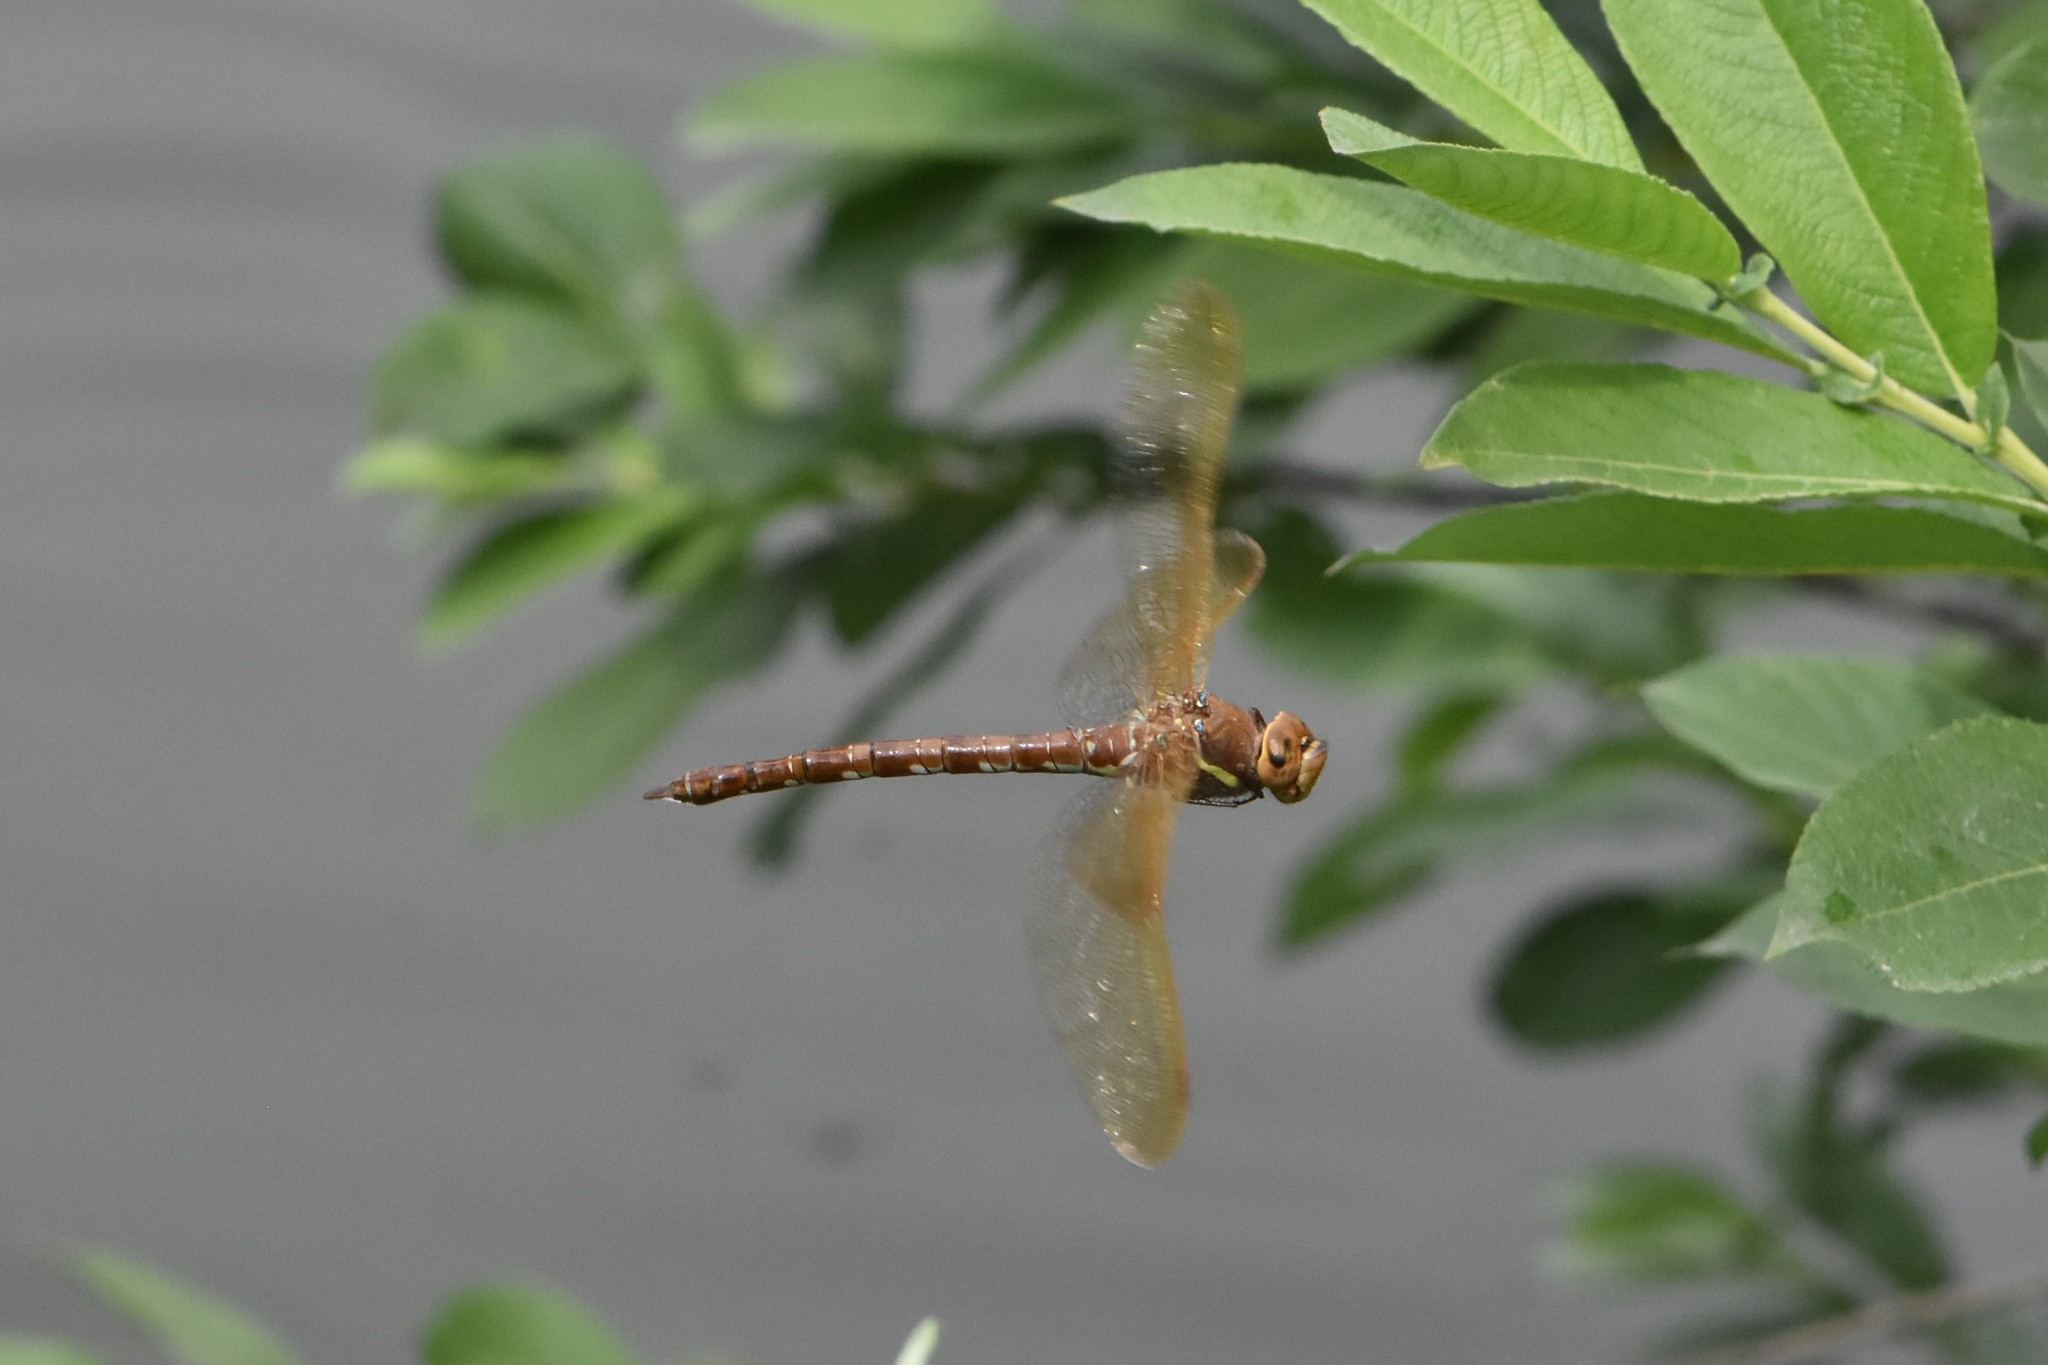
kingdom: Animalia
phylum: Arthropoda
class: Insecta
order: Odonata
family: Aeshnidae
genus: Aeshna
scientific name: Aeshna grandis
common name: Brown hawker
